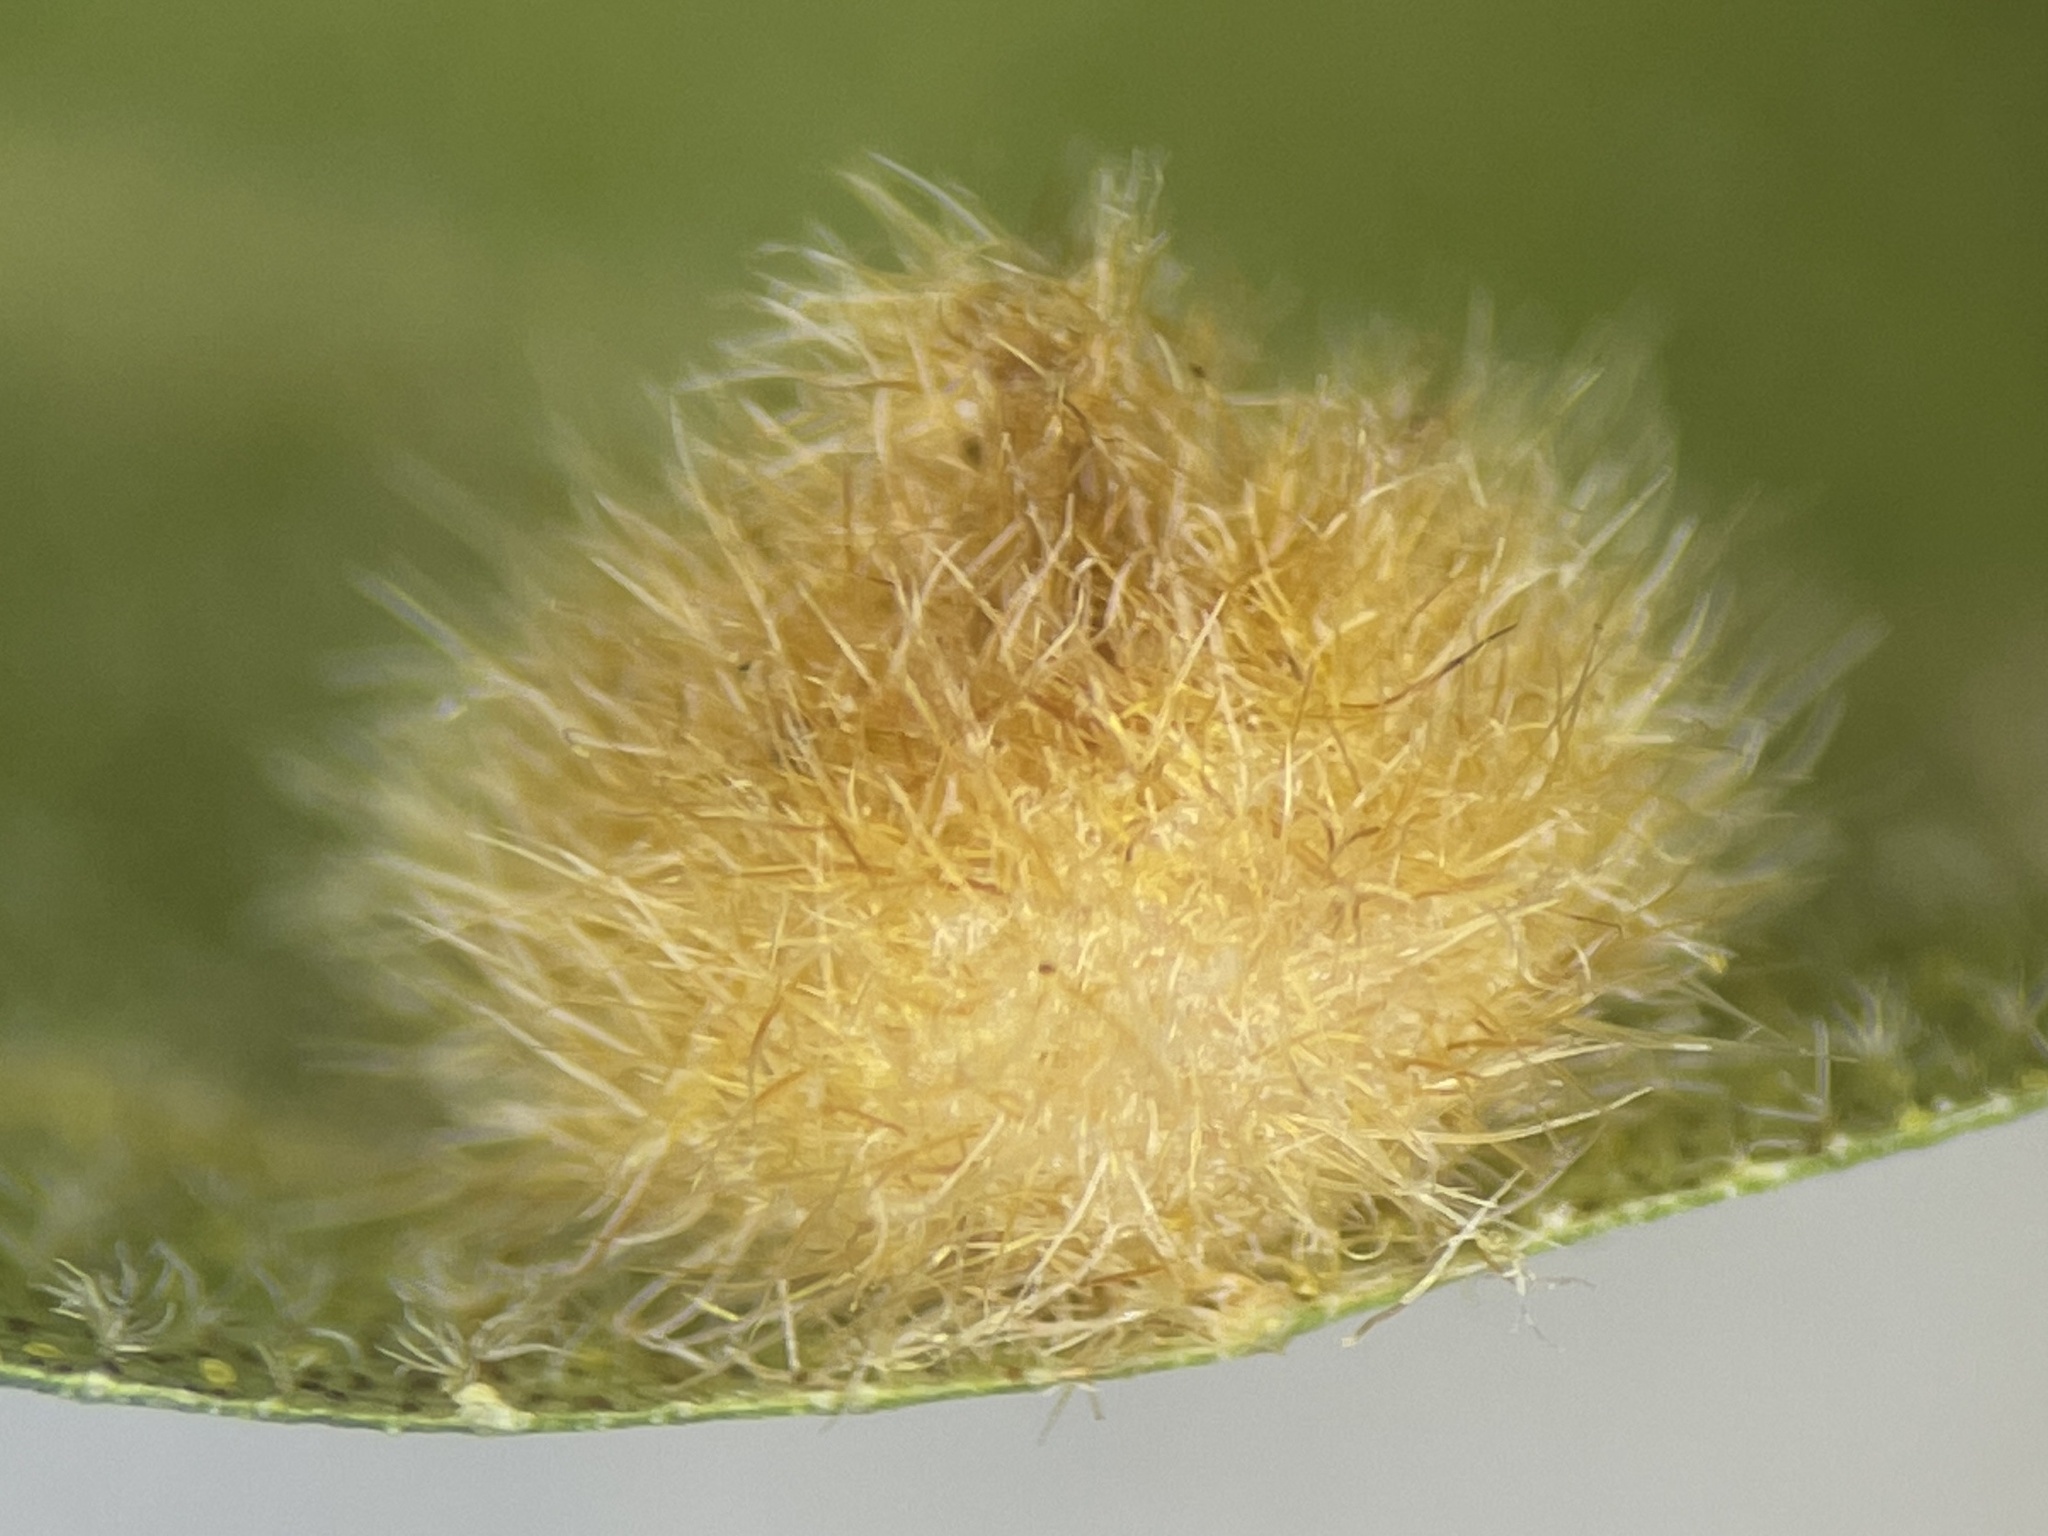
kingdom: Animalia
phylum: Arthropoda
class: Insecta
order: Diptera
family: Cecidomyiidae
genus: Caryomyia
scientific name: Caryomyia holotricha
